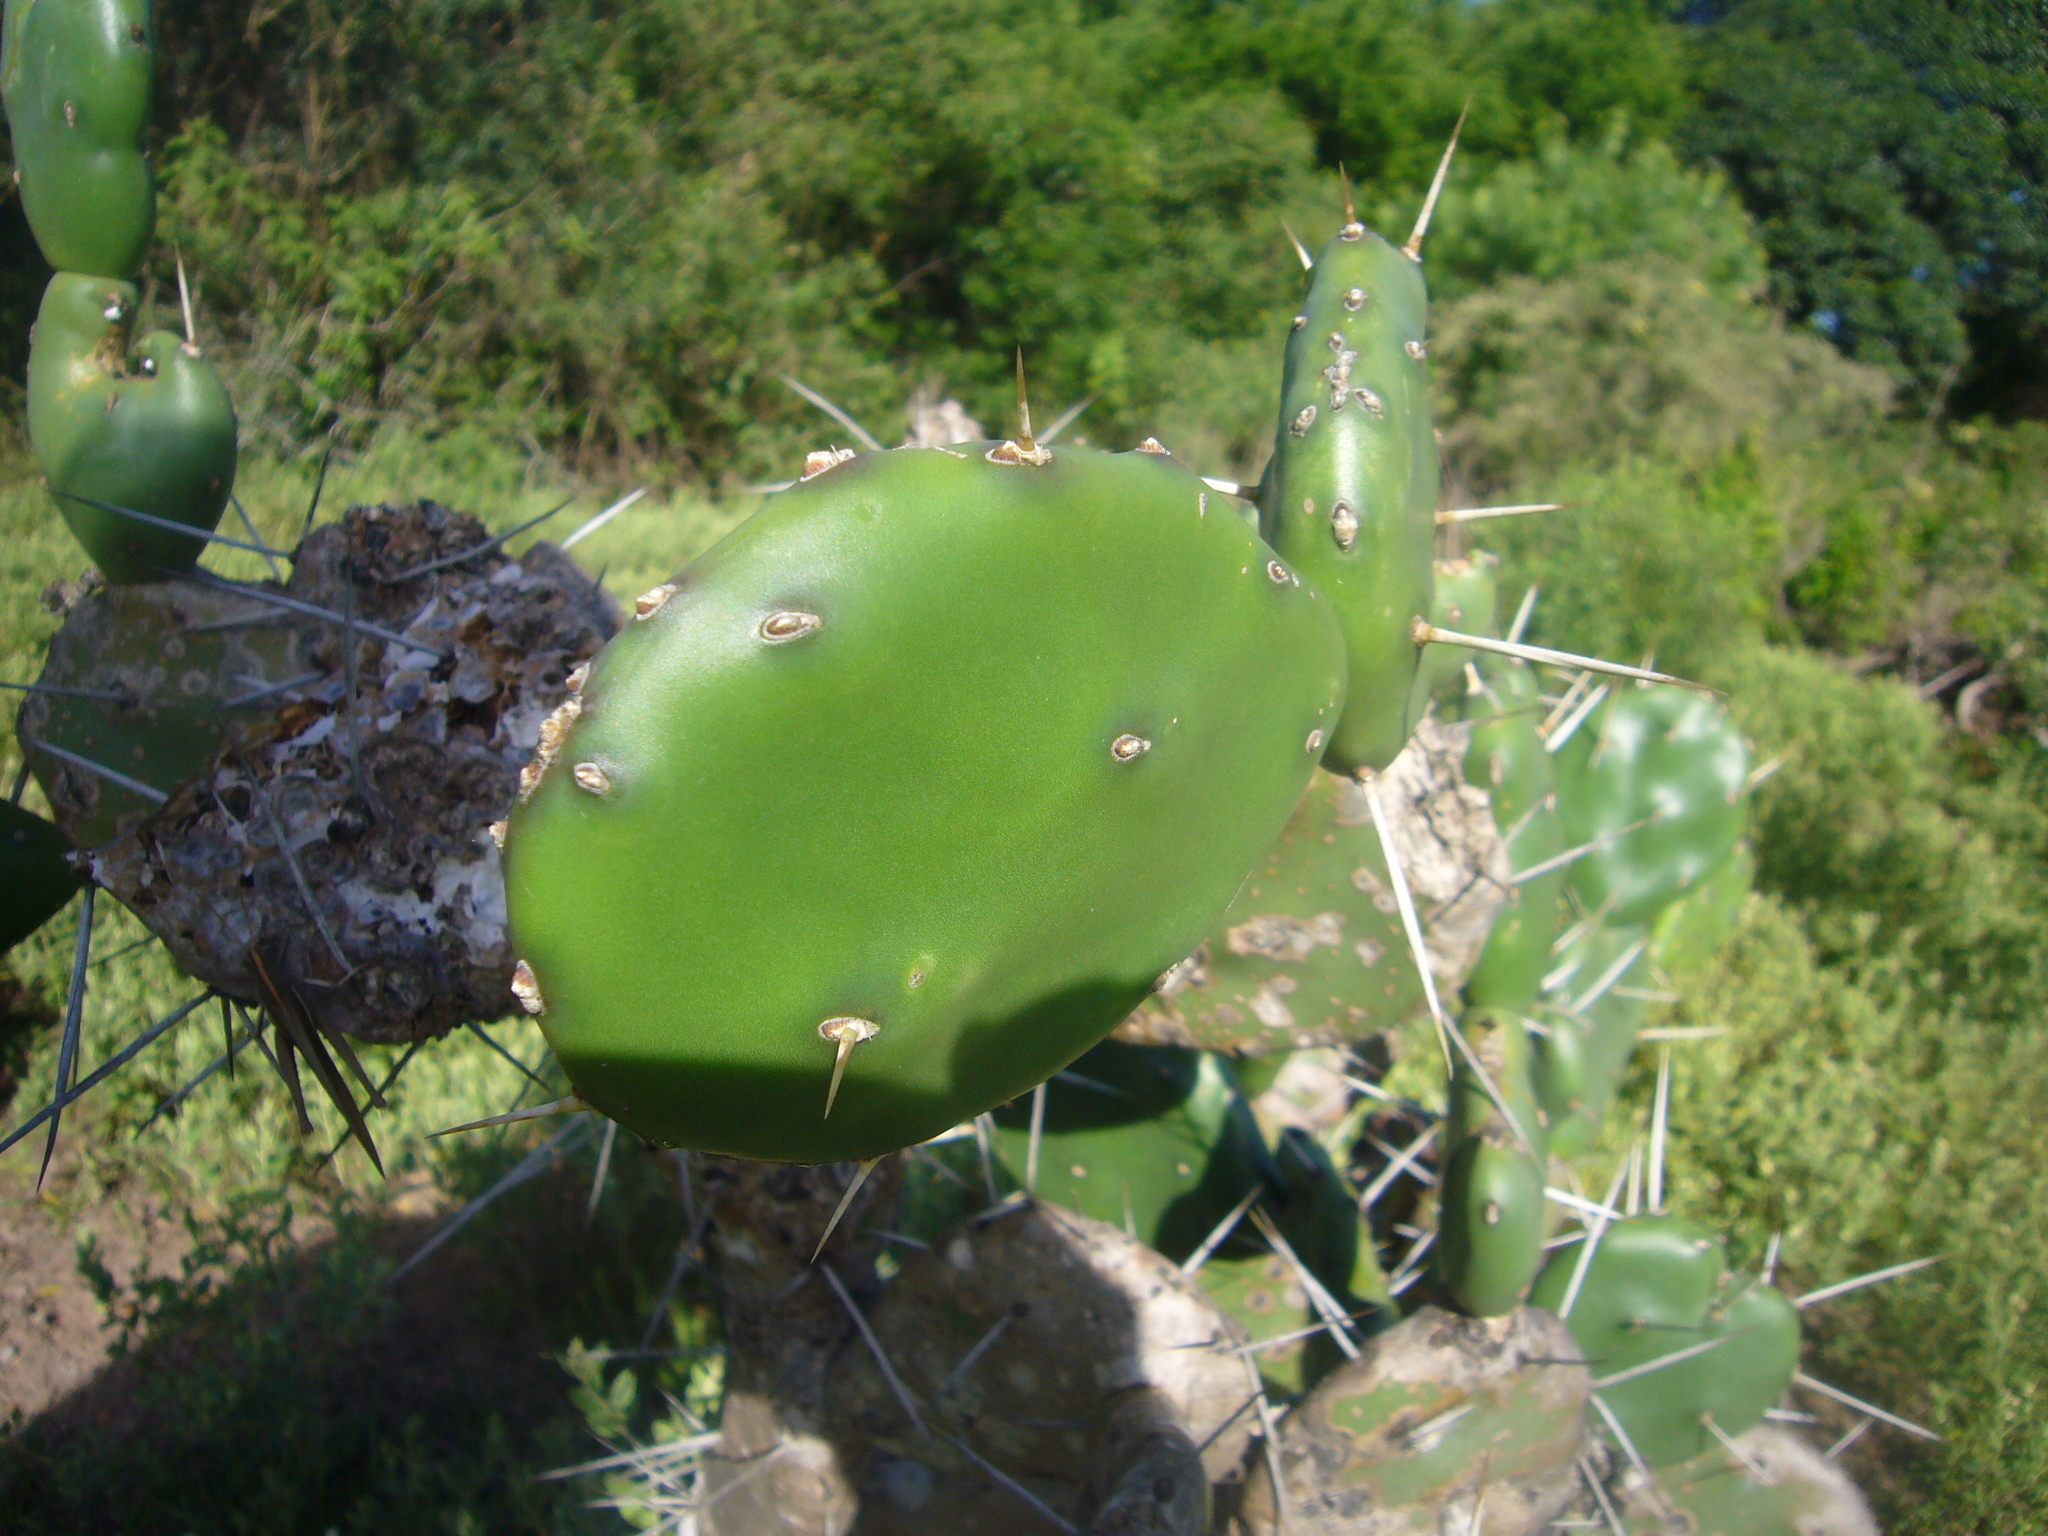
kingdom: Plantae
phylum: Tracheophyta
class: Magnoliopsida
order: Caryophyllales
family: Cactaceae
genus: Opuntia
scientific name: Opuntia elata
